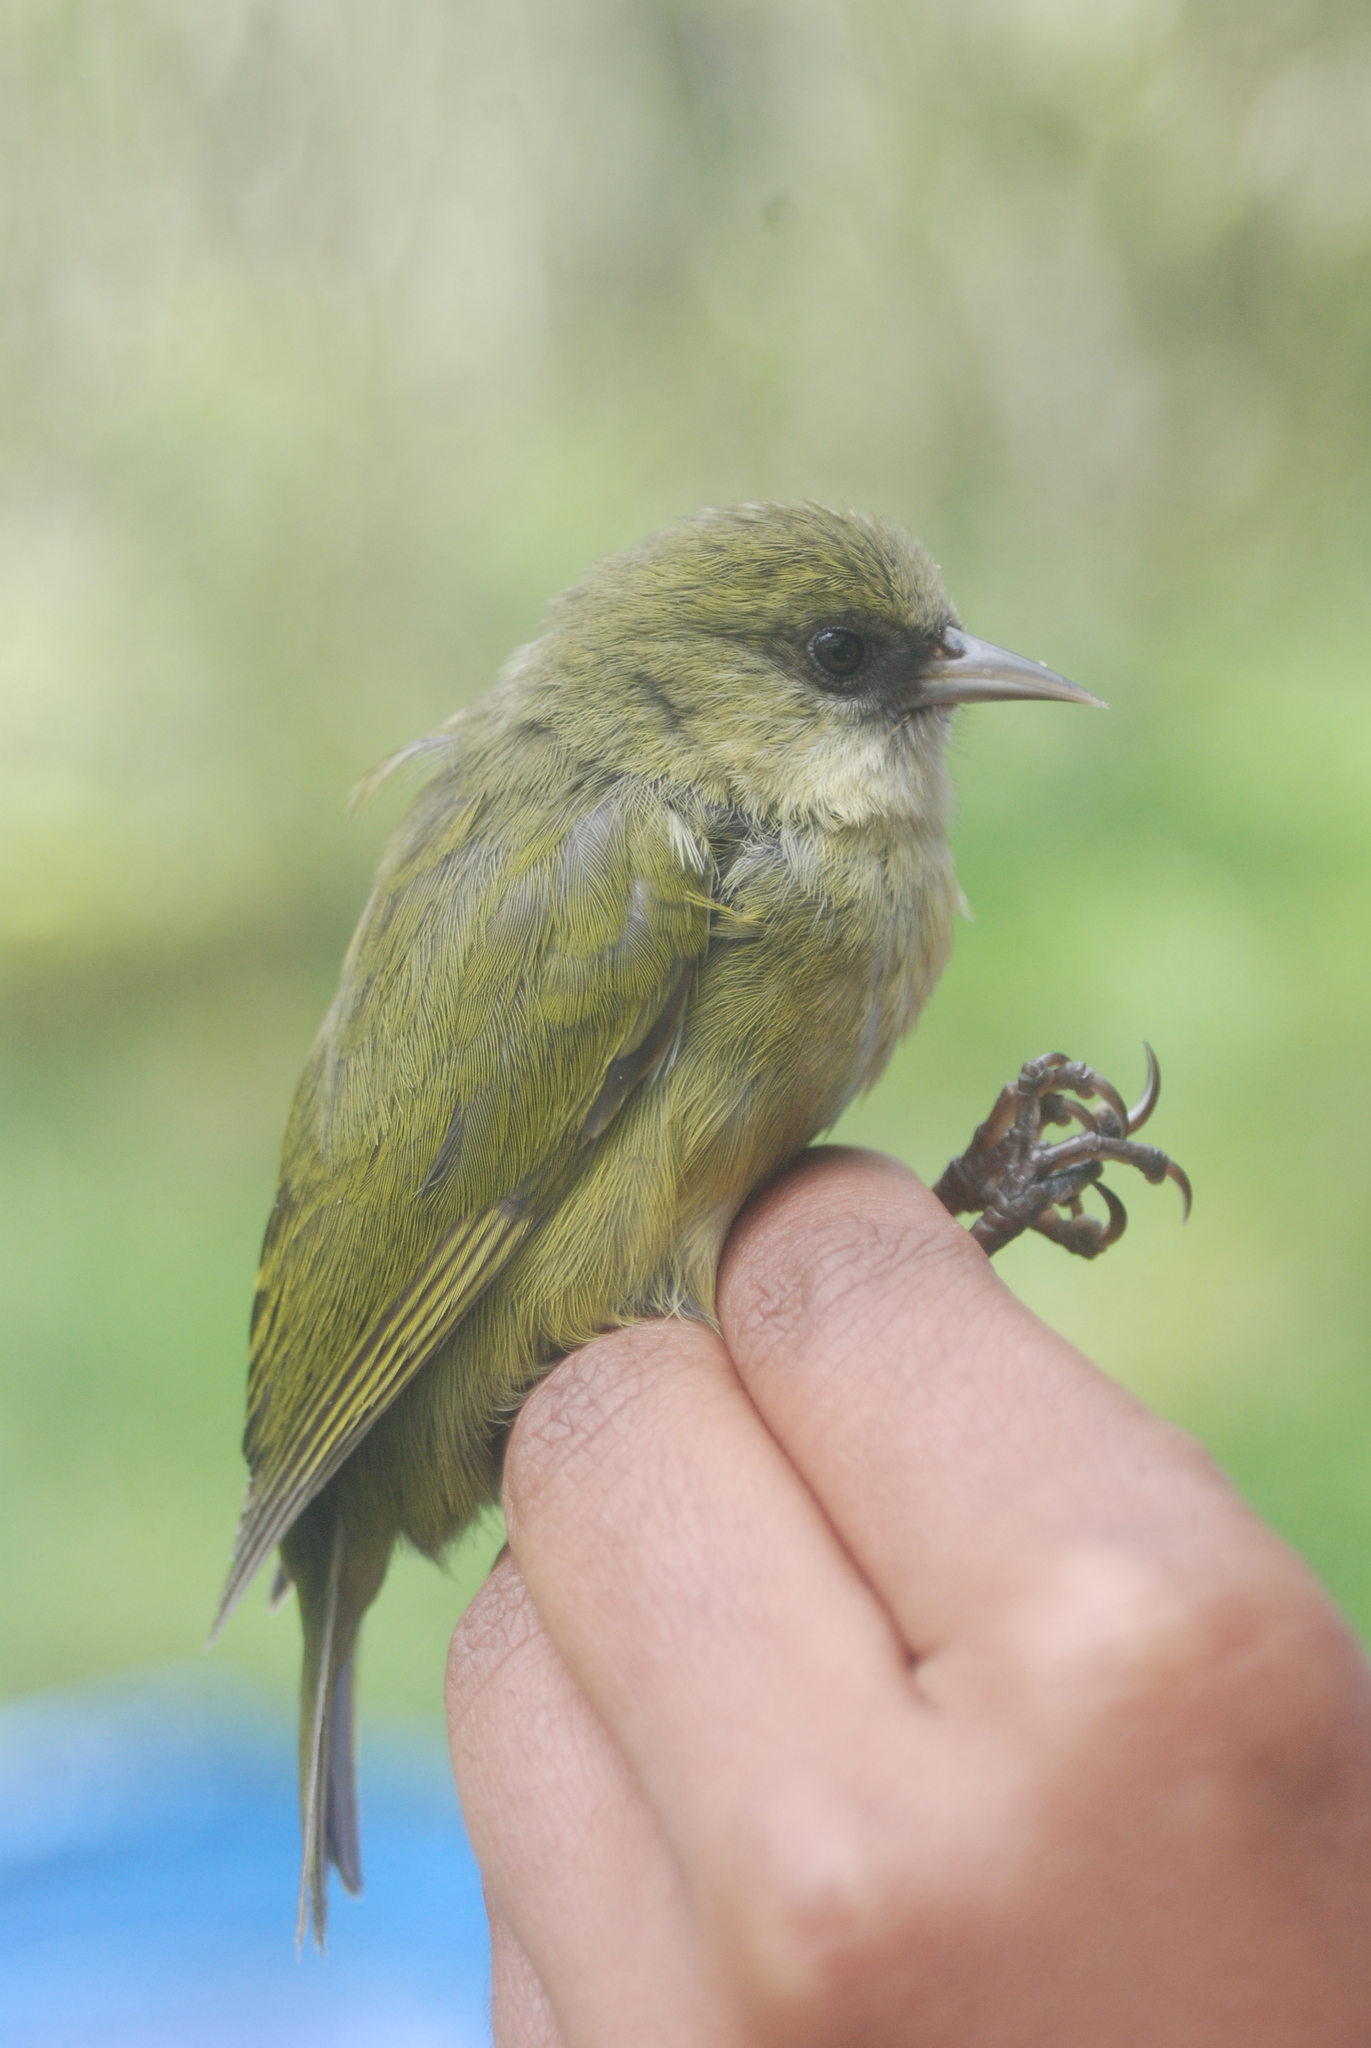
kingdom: Animalia
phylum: Chordata
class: Aves
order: Passeriformes
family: Fringillidae
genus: Loxops
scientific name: Loxops mana
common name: Hawaii creeper
